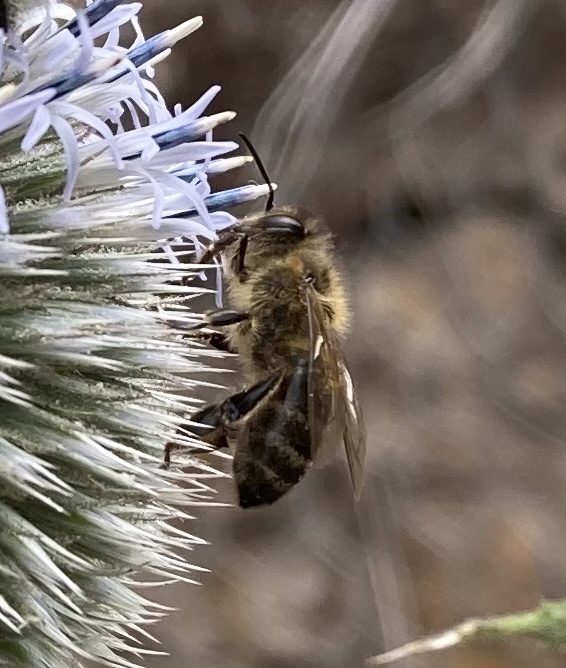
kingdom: Animalia
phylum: Arthropoda
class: Insecta
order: Hymenoptera
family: Apidae
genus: Apis
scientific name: Apis mellifera
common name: Honey bee
